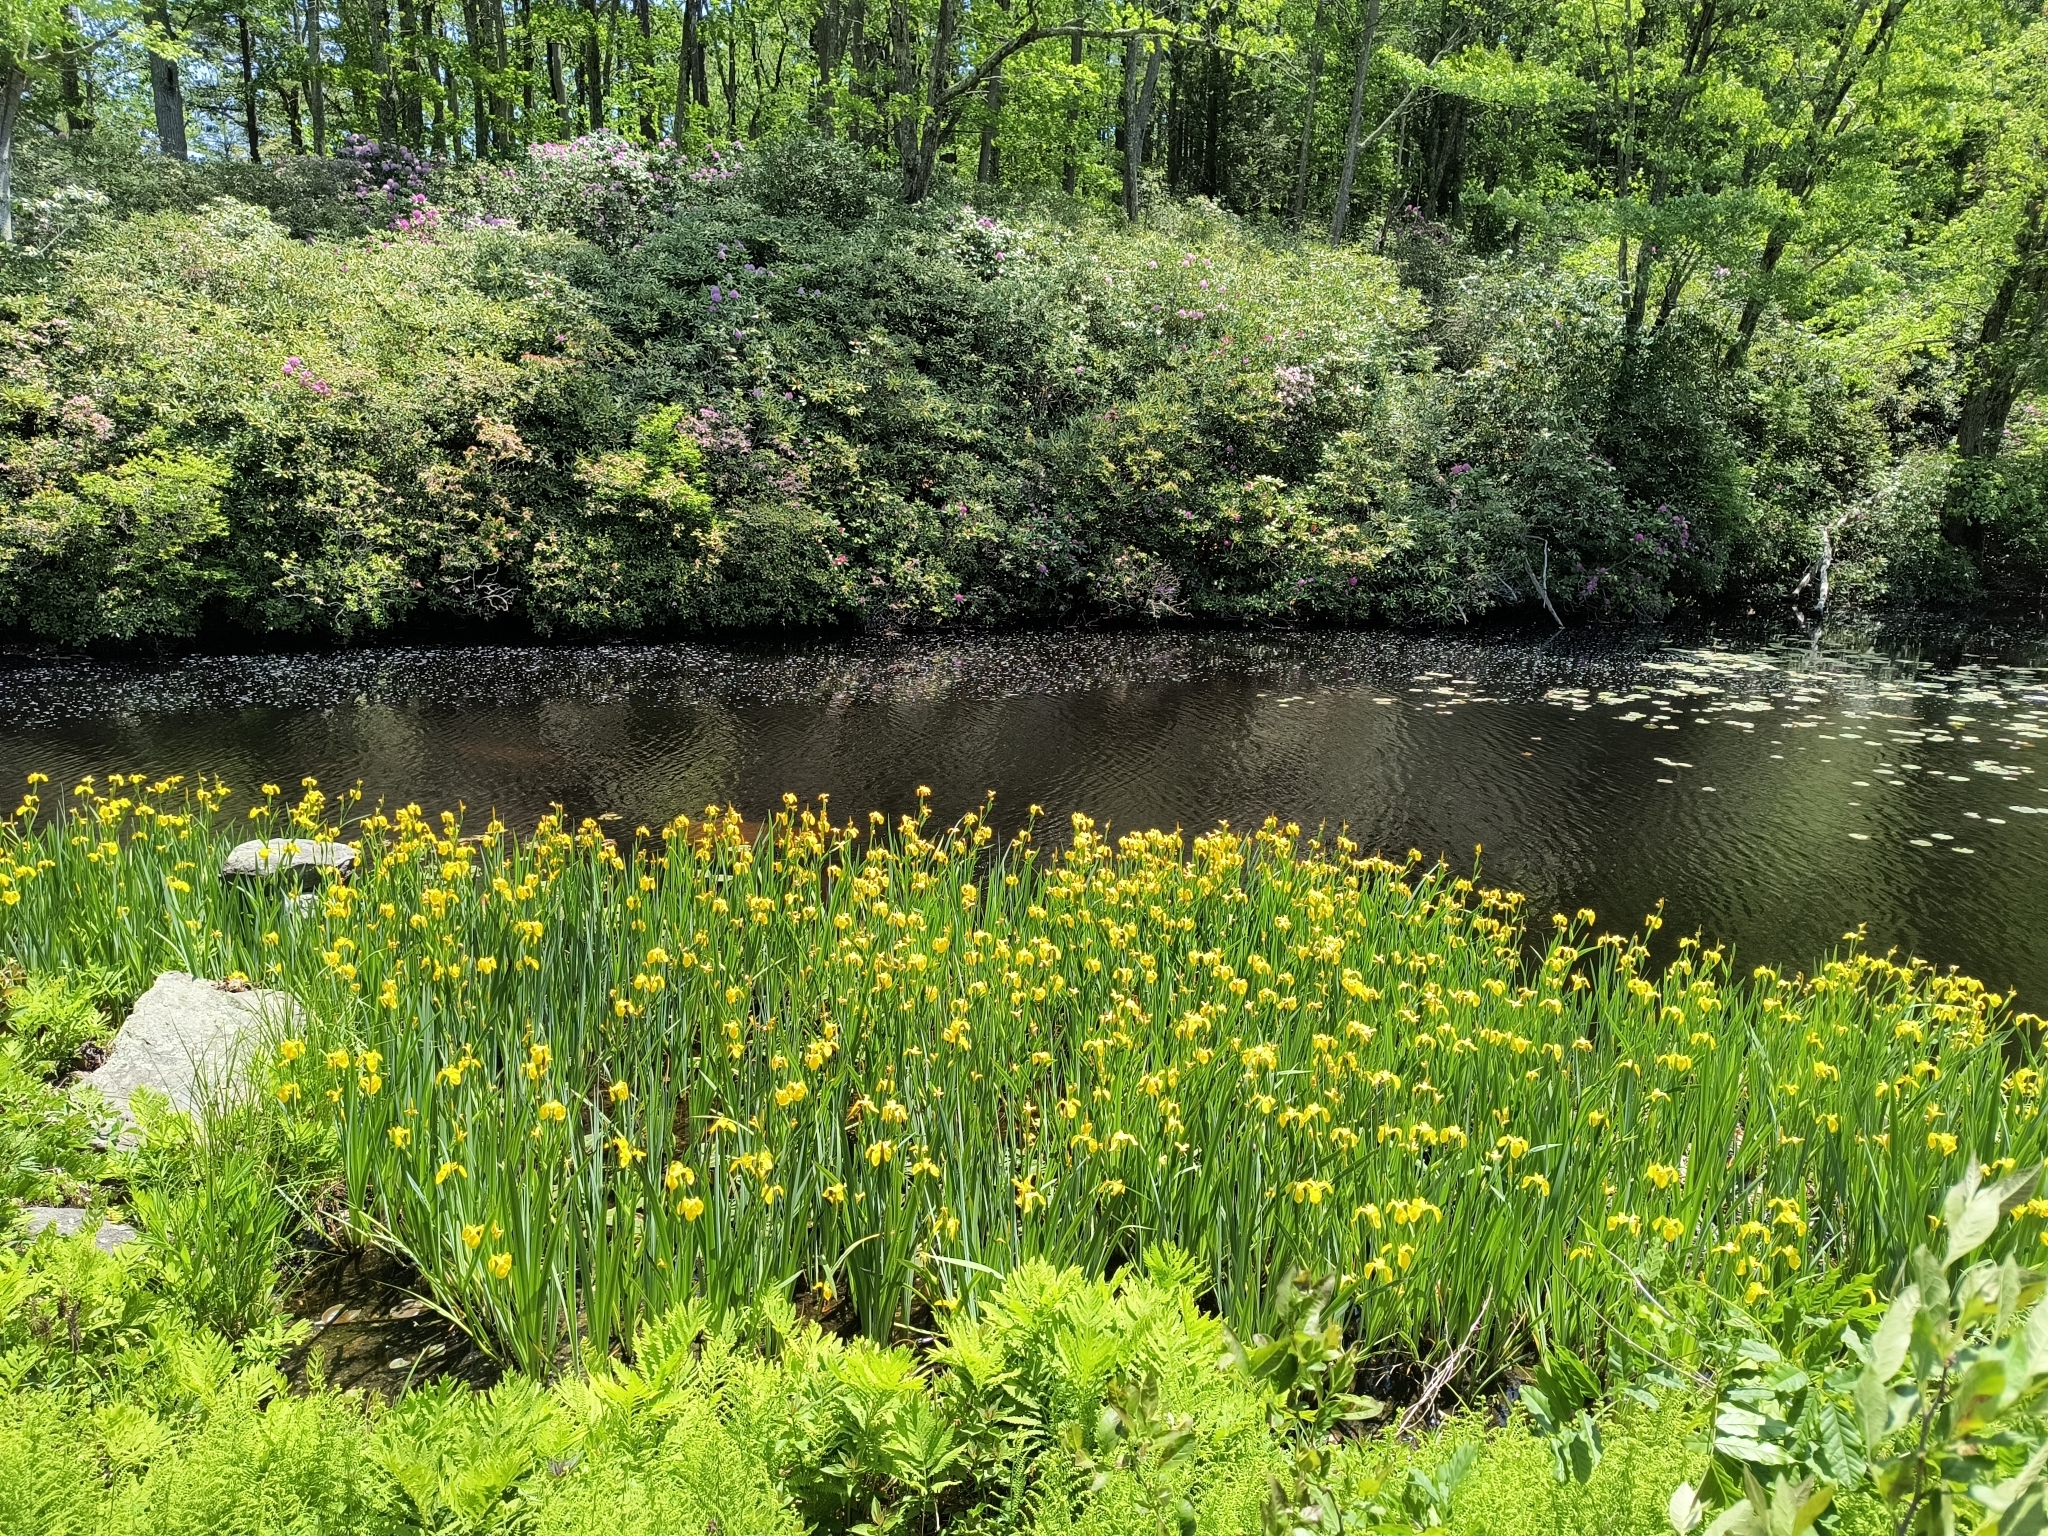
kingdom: Plantae
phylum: Tracheophyta
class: Liliopsida
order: Asparagales
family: Iridaceae
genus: Iris
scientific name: Iris pseudacorus
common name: Yellow flag
